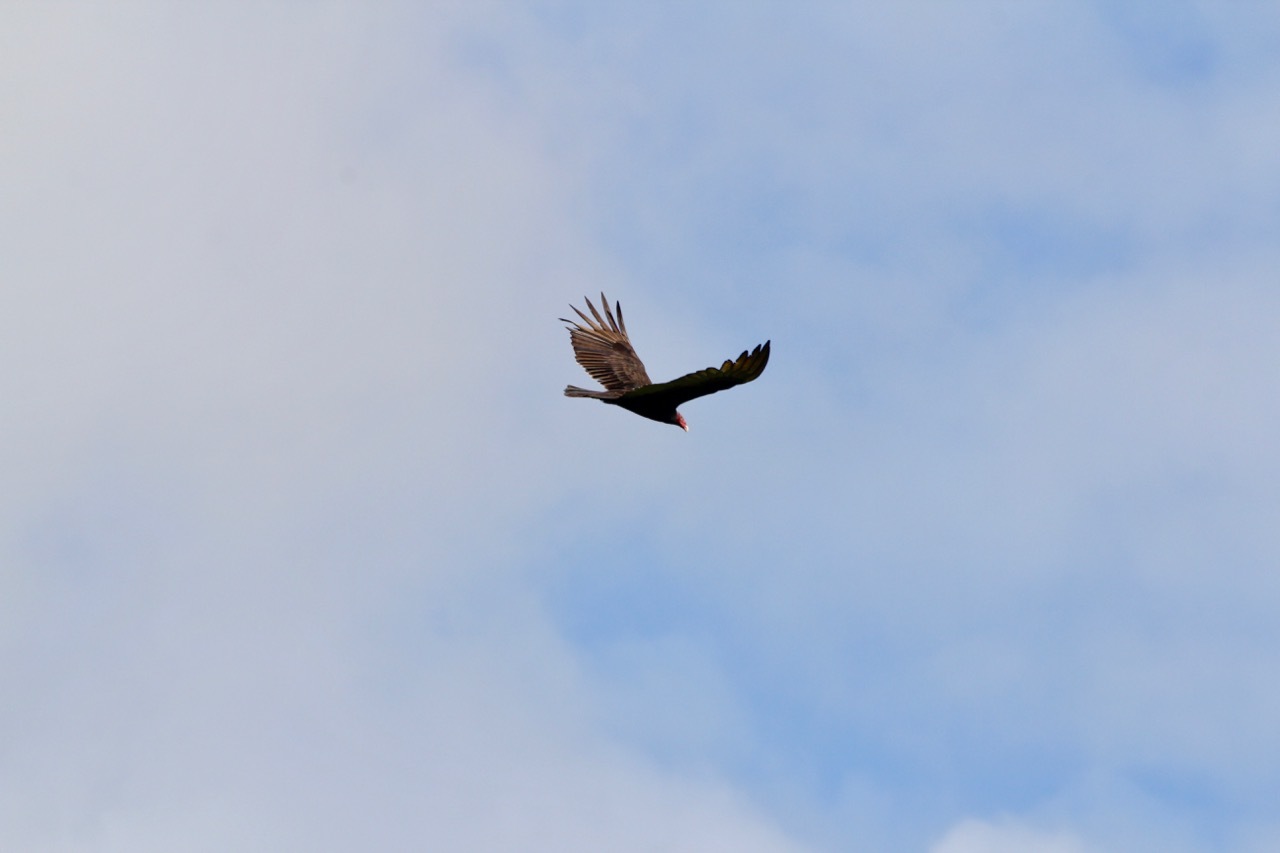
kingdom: Animalia
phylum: Chordata
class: Aves
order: Accipitriformes
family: Cathartidae
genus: Cathartes
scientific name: Cathartes aura
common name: Turkey vulture
